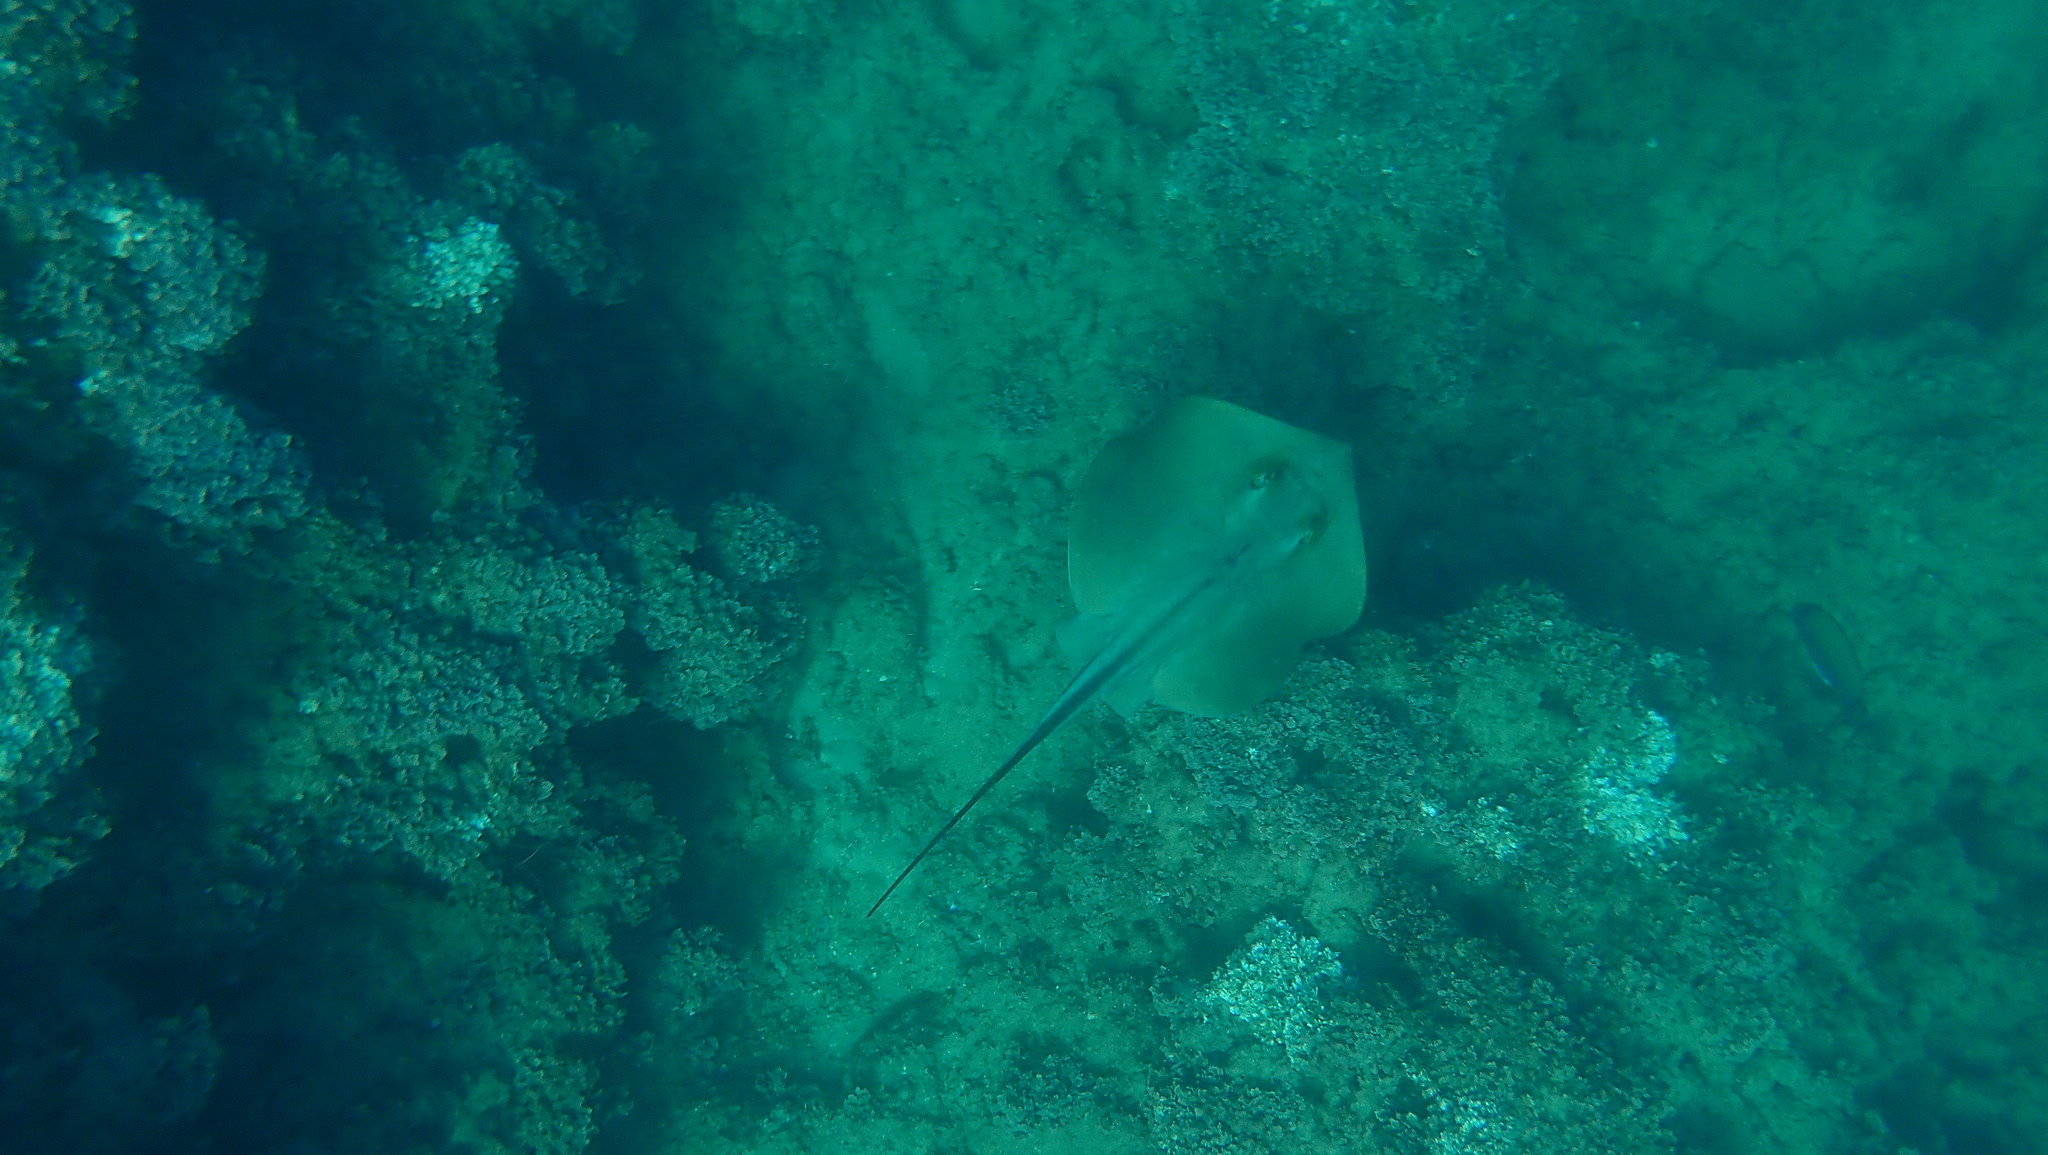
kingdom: Animalia
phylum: Chordata
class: Elasmobranchii
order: Myliobatiformes
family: Dasyatidae
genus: Dasyatis
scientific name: Dasyatis pastinaca
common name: Common stingray
